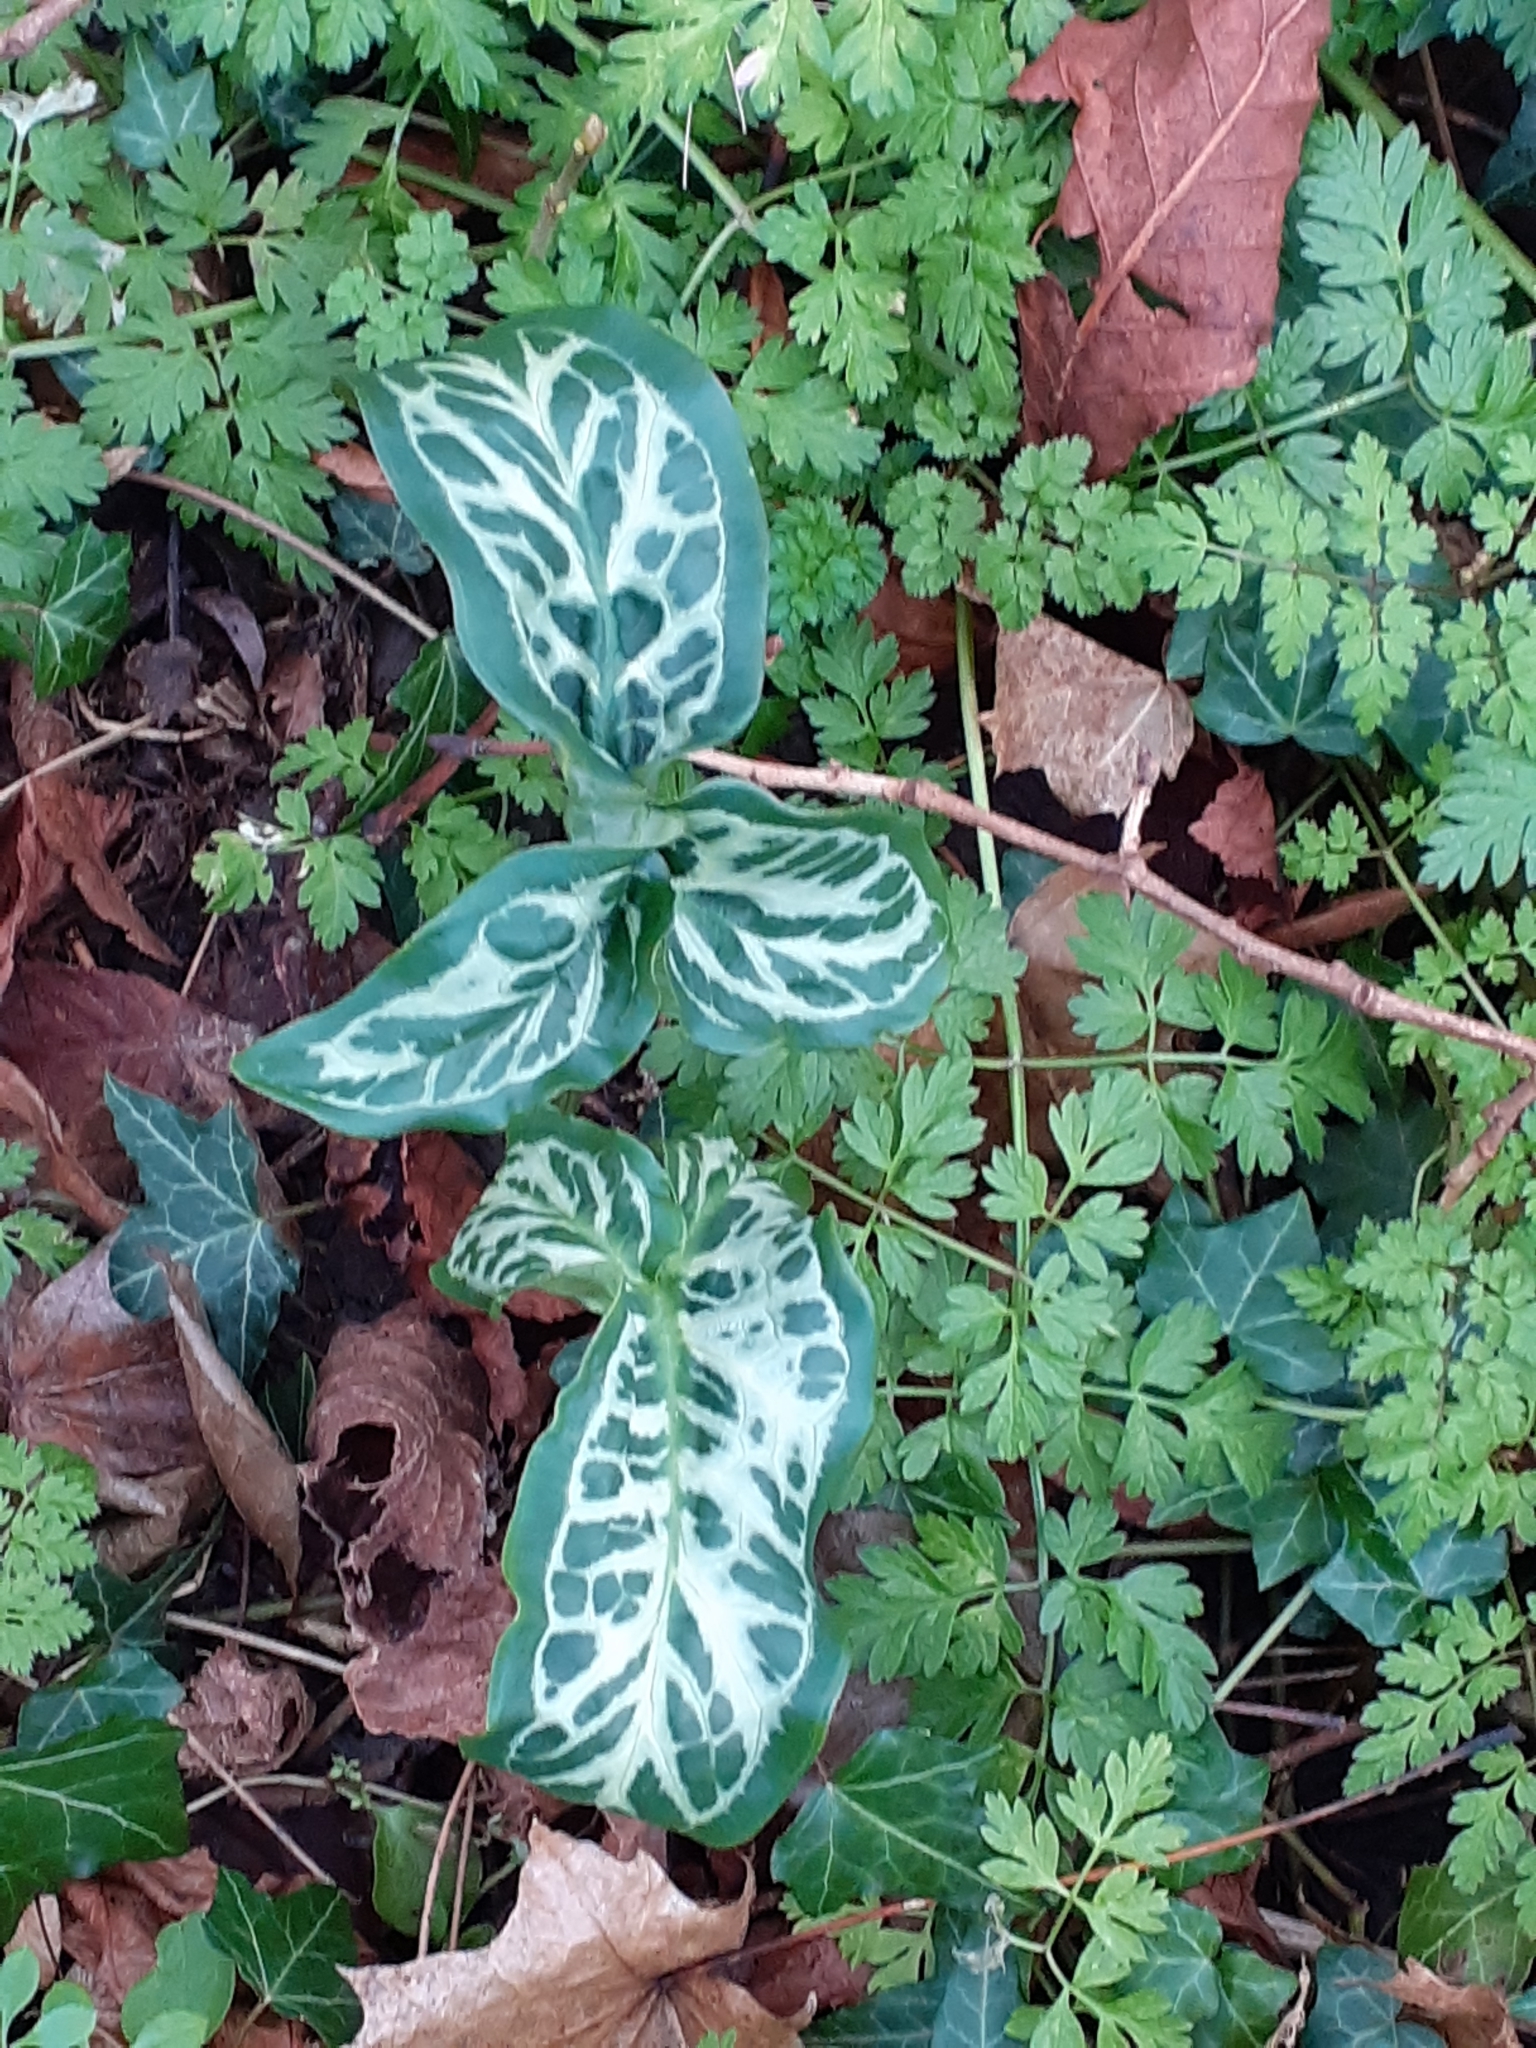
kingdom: Plantae
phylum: Tracheophyta
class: Liliopsida
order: Alismatales
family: Araceae
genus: Arum
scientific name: Arum italicum
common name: Italian lords-and-ladies
